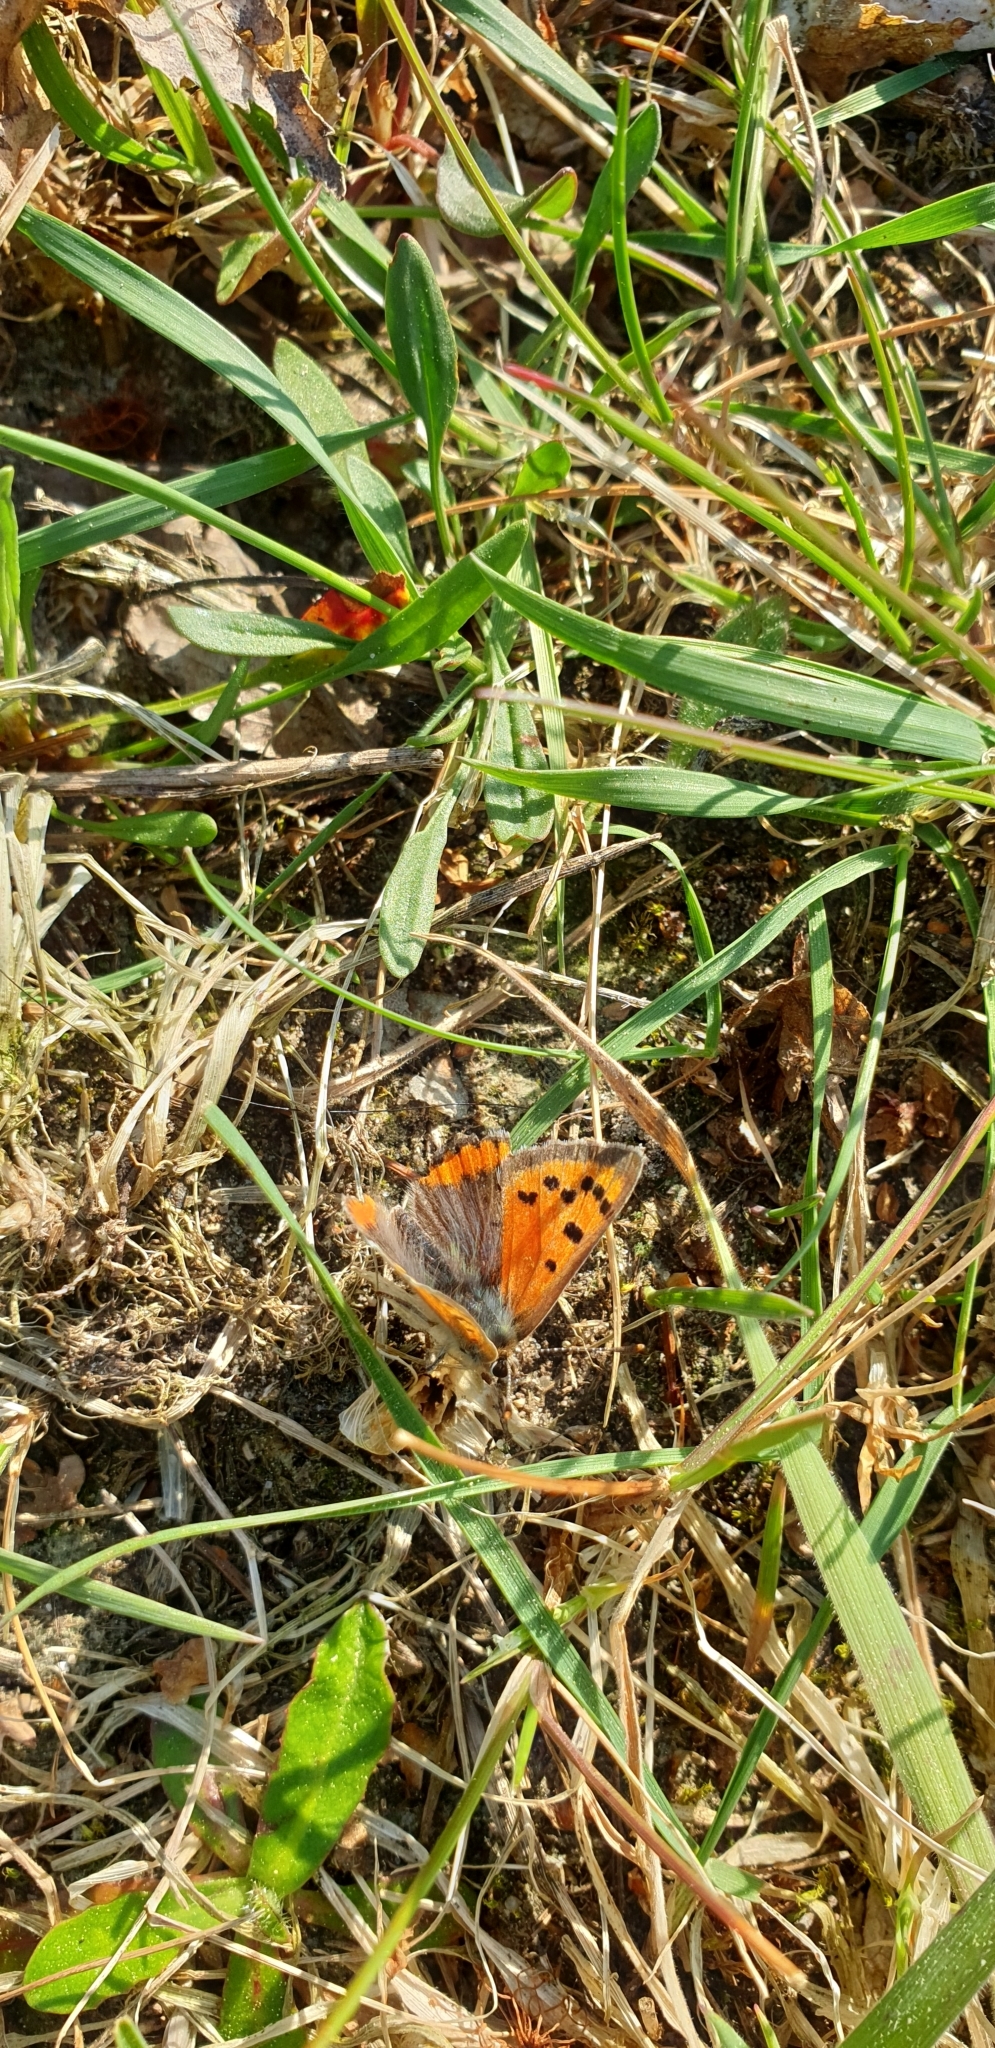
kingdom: Animalia
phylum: Arthropoda
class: Insecta
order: Lepidoptera
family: Lycaenidae
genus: Lycaena
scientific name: Lycaena phlaeas
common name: Small copper
